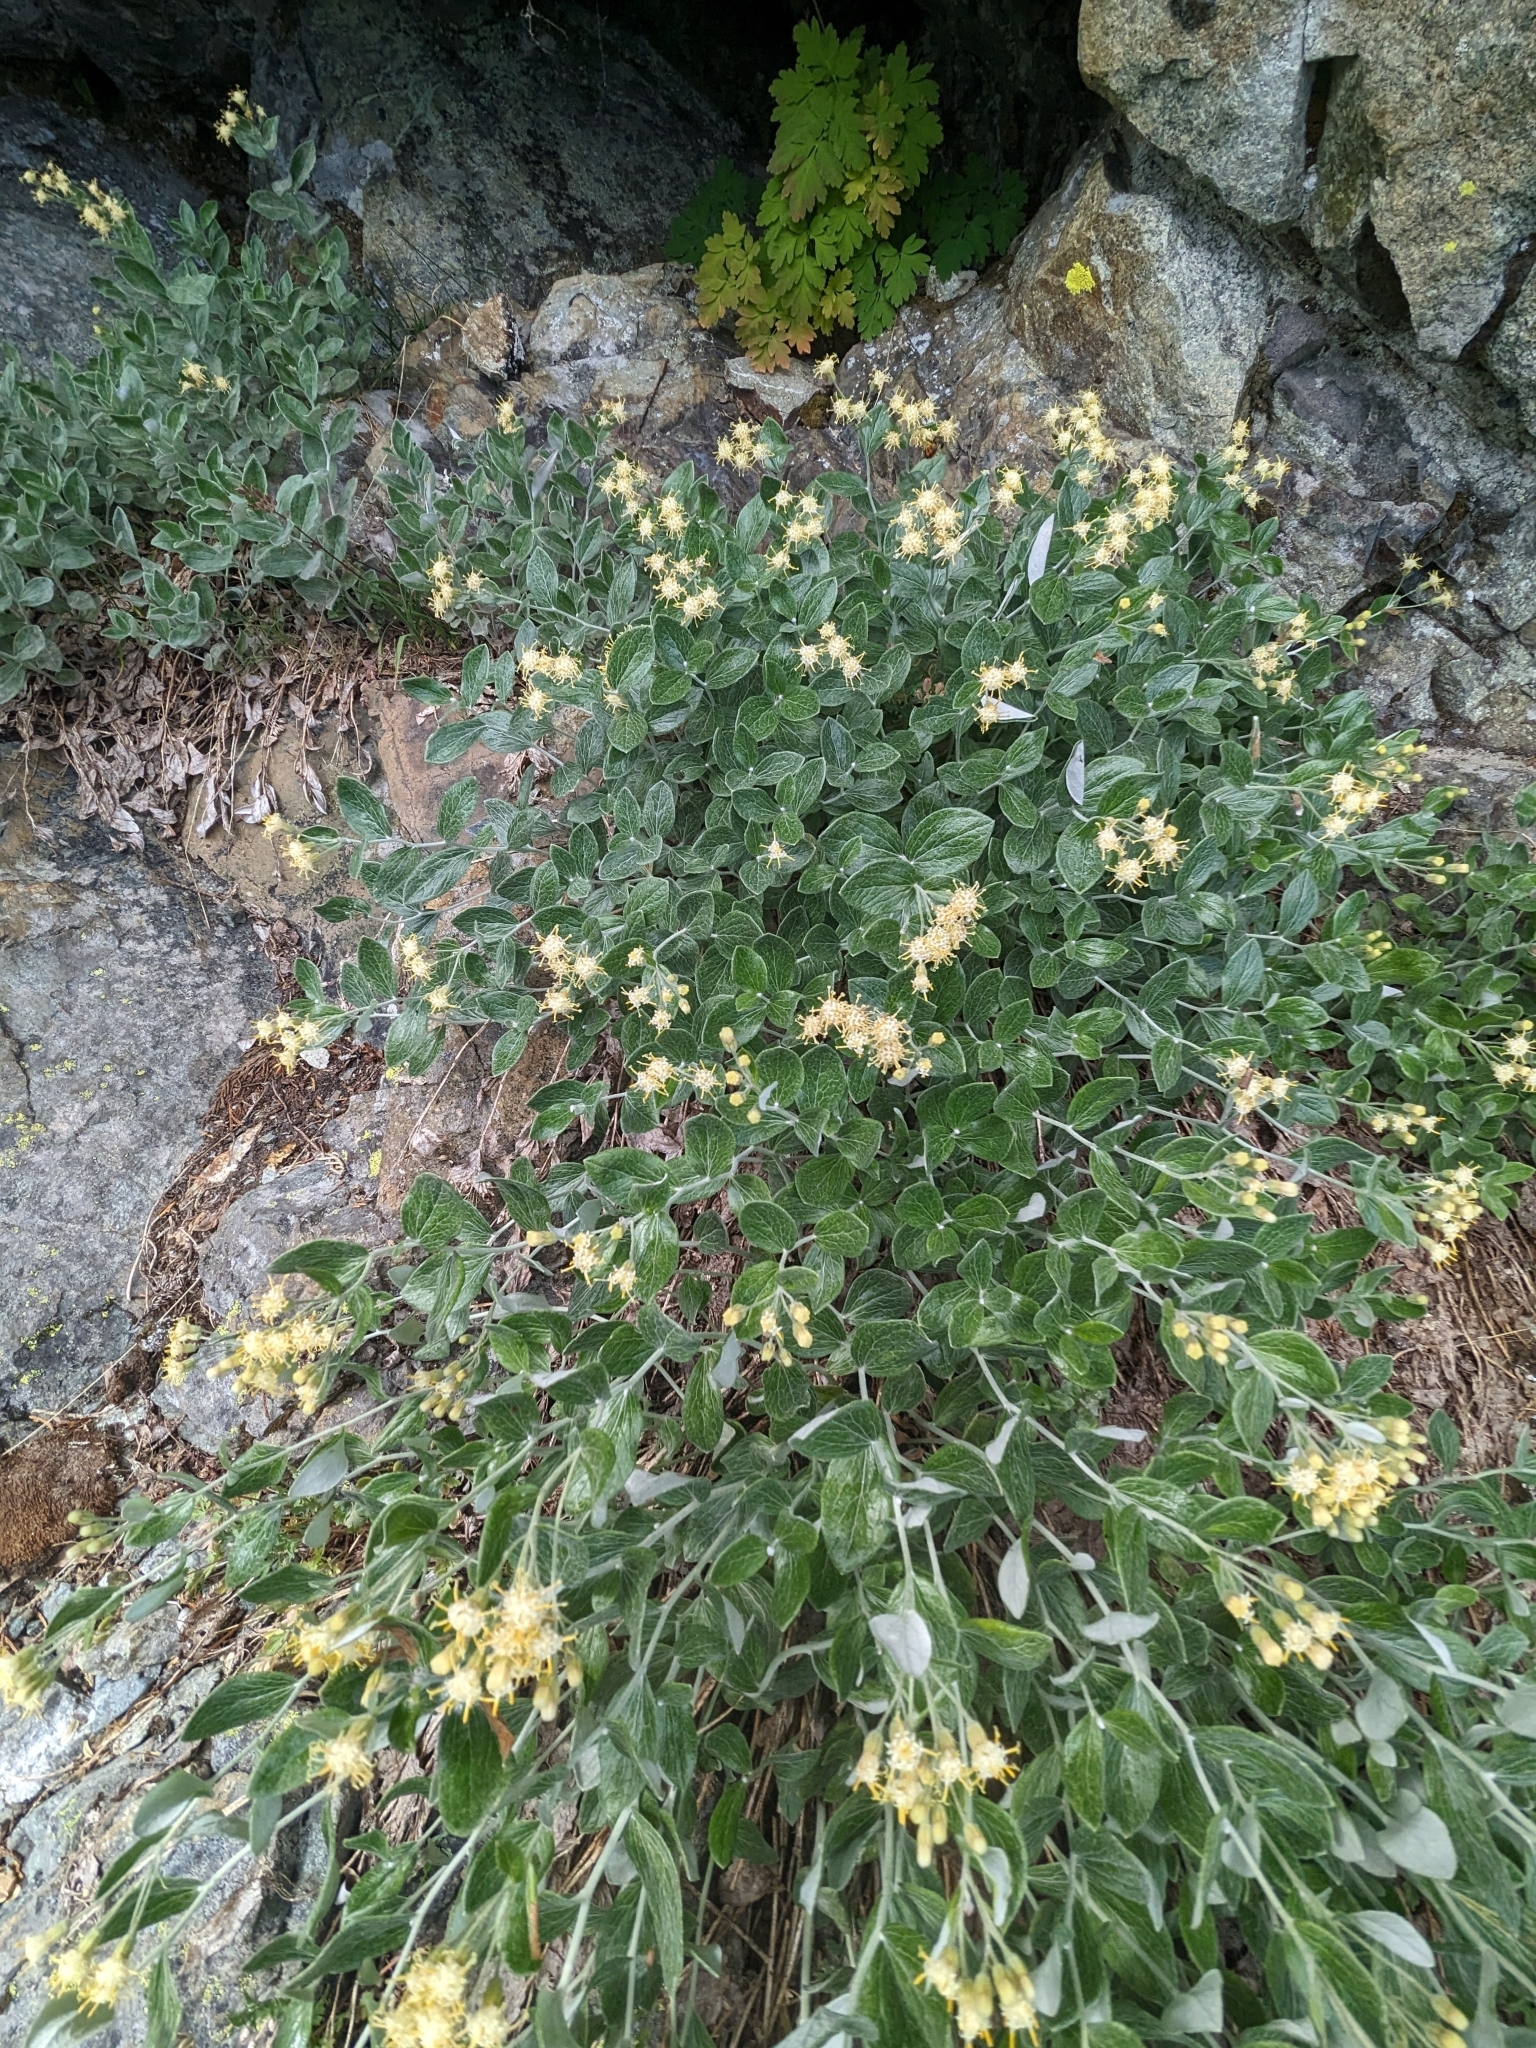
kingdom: Plantae
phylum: Tracheophyta
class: Magnoliopsida
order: Asterales
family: Asteraceae
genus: Luina
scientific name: Luina hypoleuca
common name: Little-leaved luina
